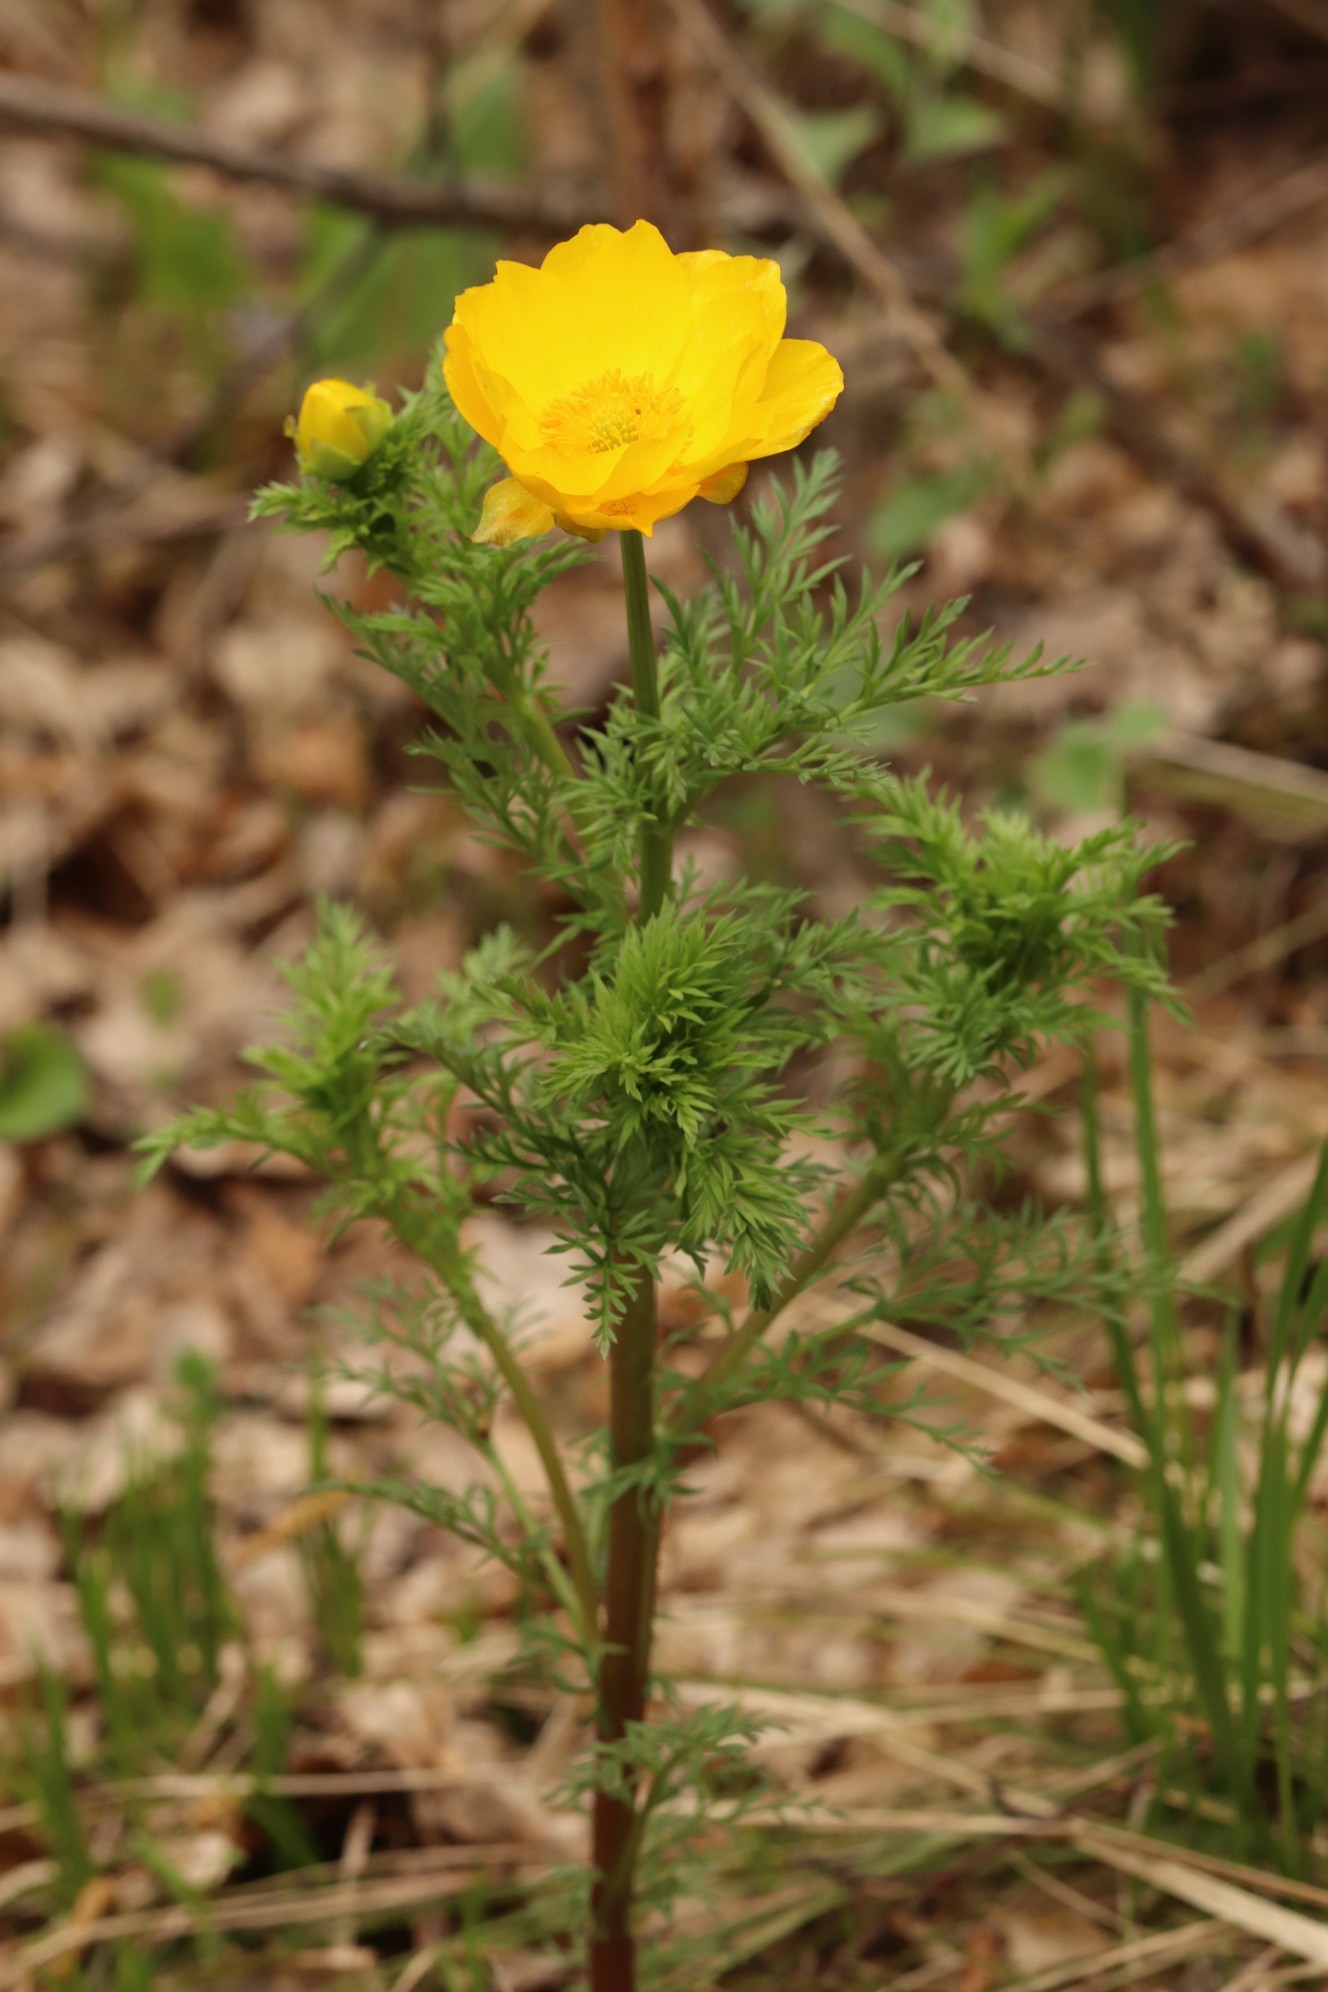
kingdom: Plantae
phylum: Tracheophyta
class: Magnoliopsida
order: Ranunculales
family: Ranunculaceae
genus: Adonis
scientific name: Adonis
